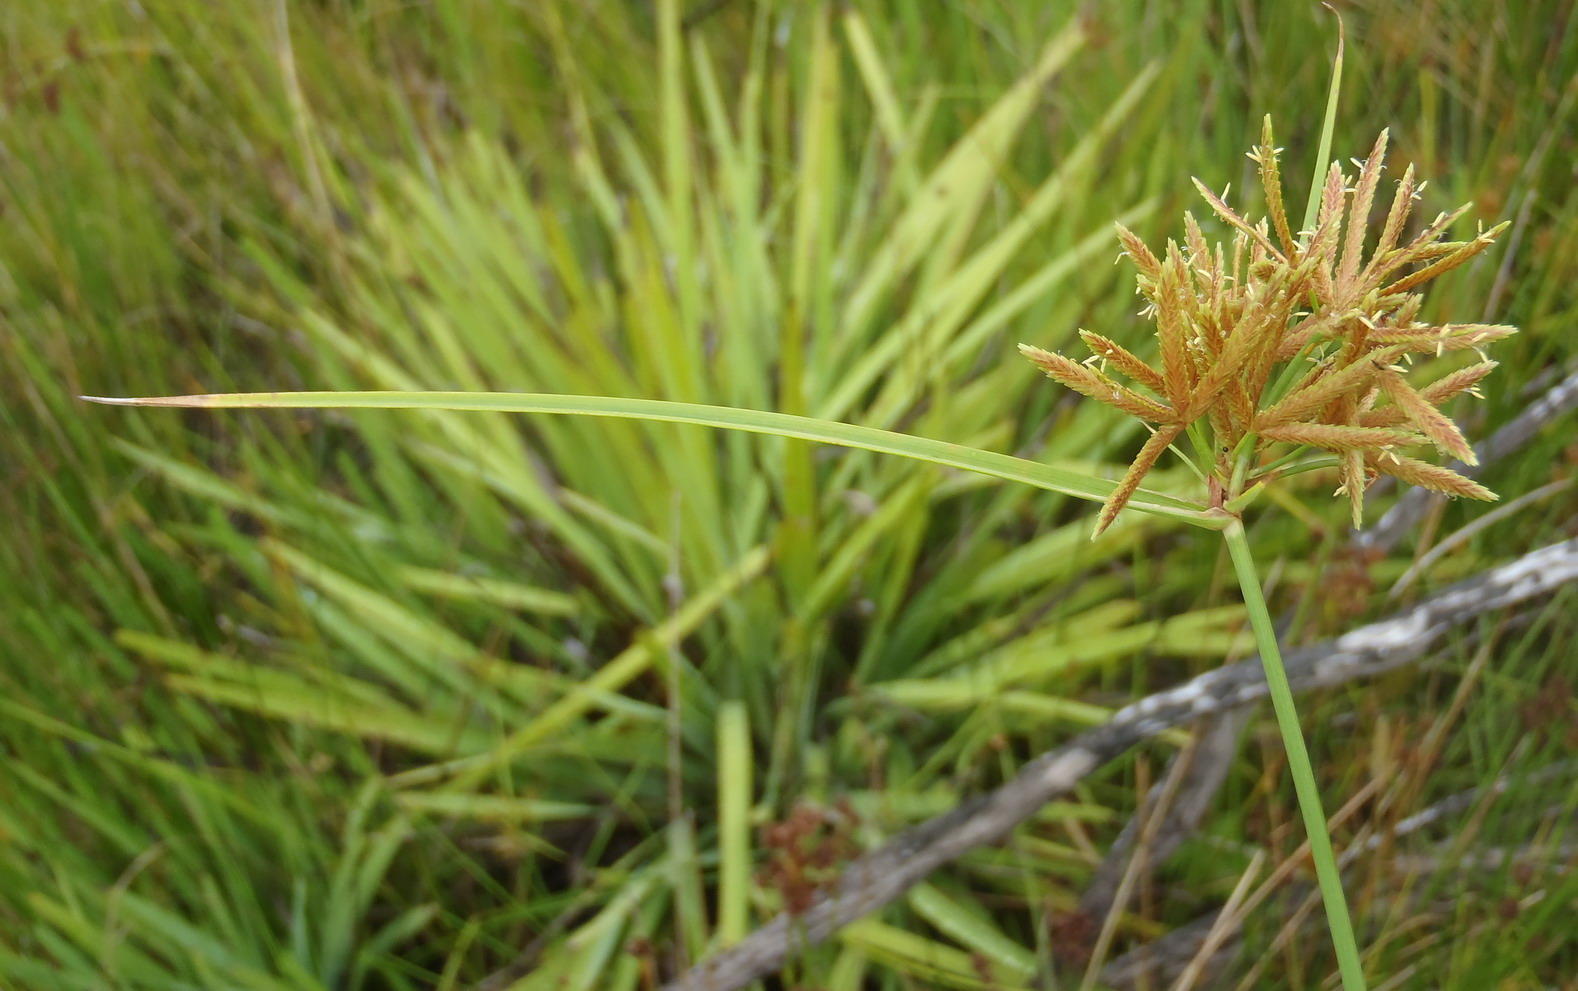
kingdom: Plantae
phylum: Tracheophyta
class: Liliopsida
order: Poales
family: Cyperaceae
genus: Cyperus
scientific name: Cyperus sphaerospermus
